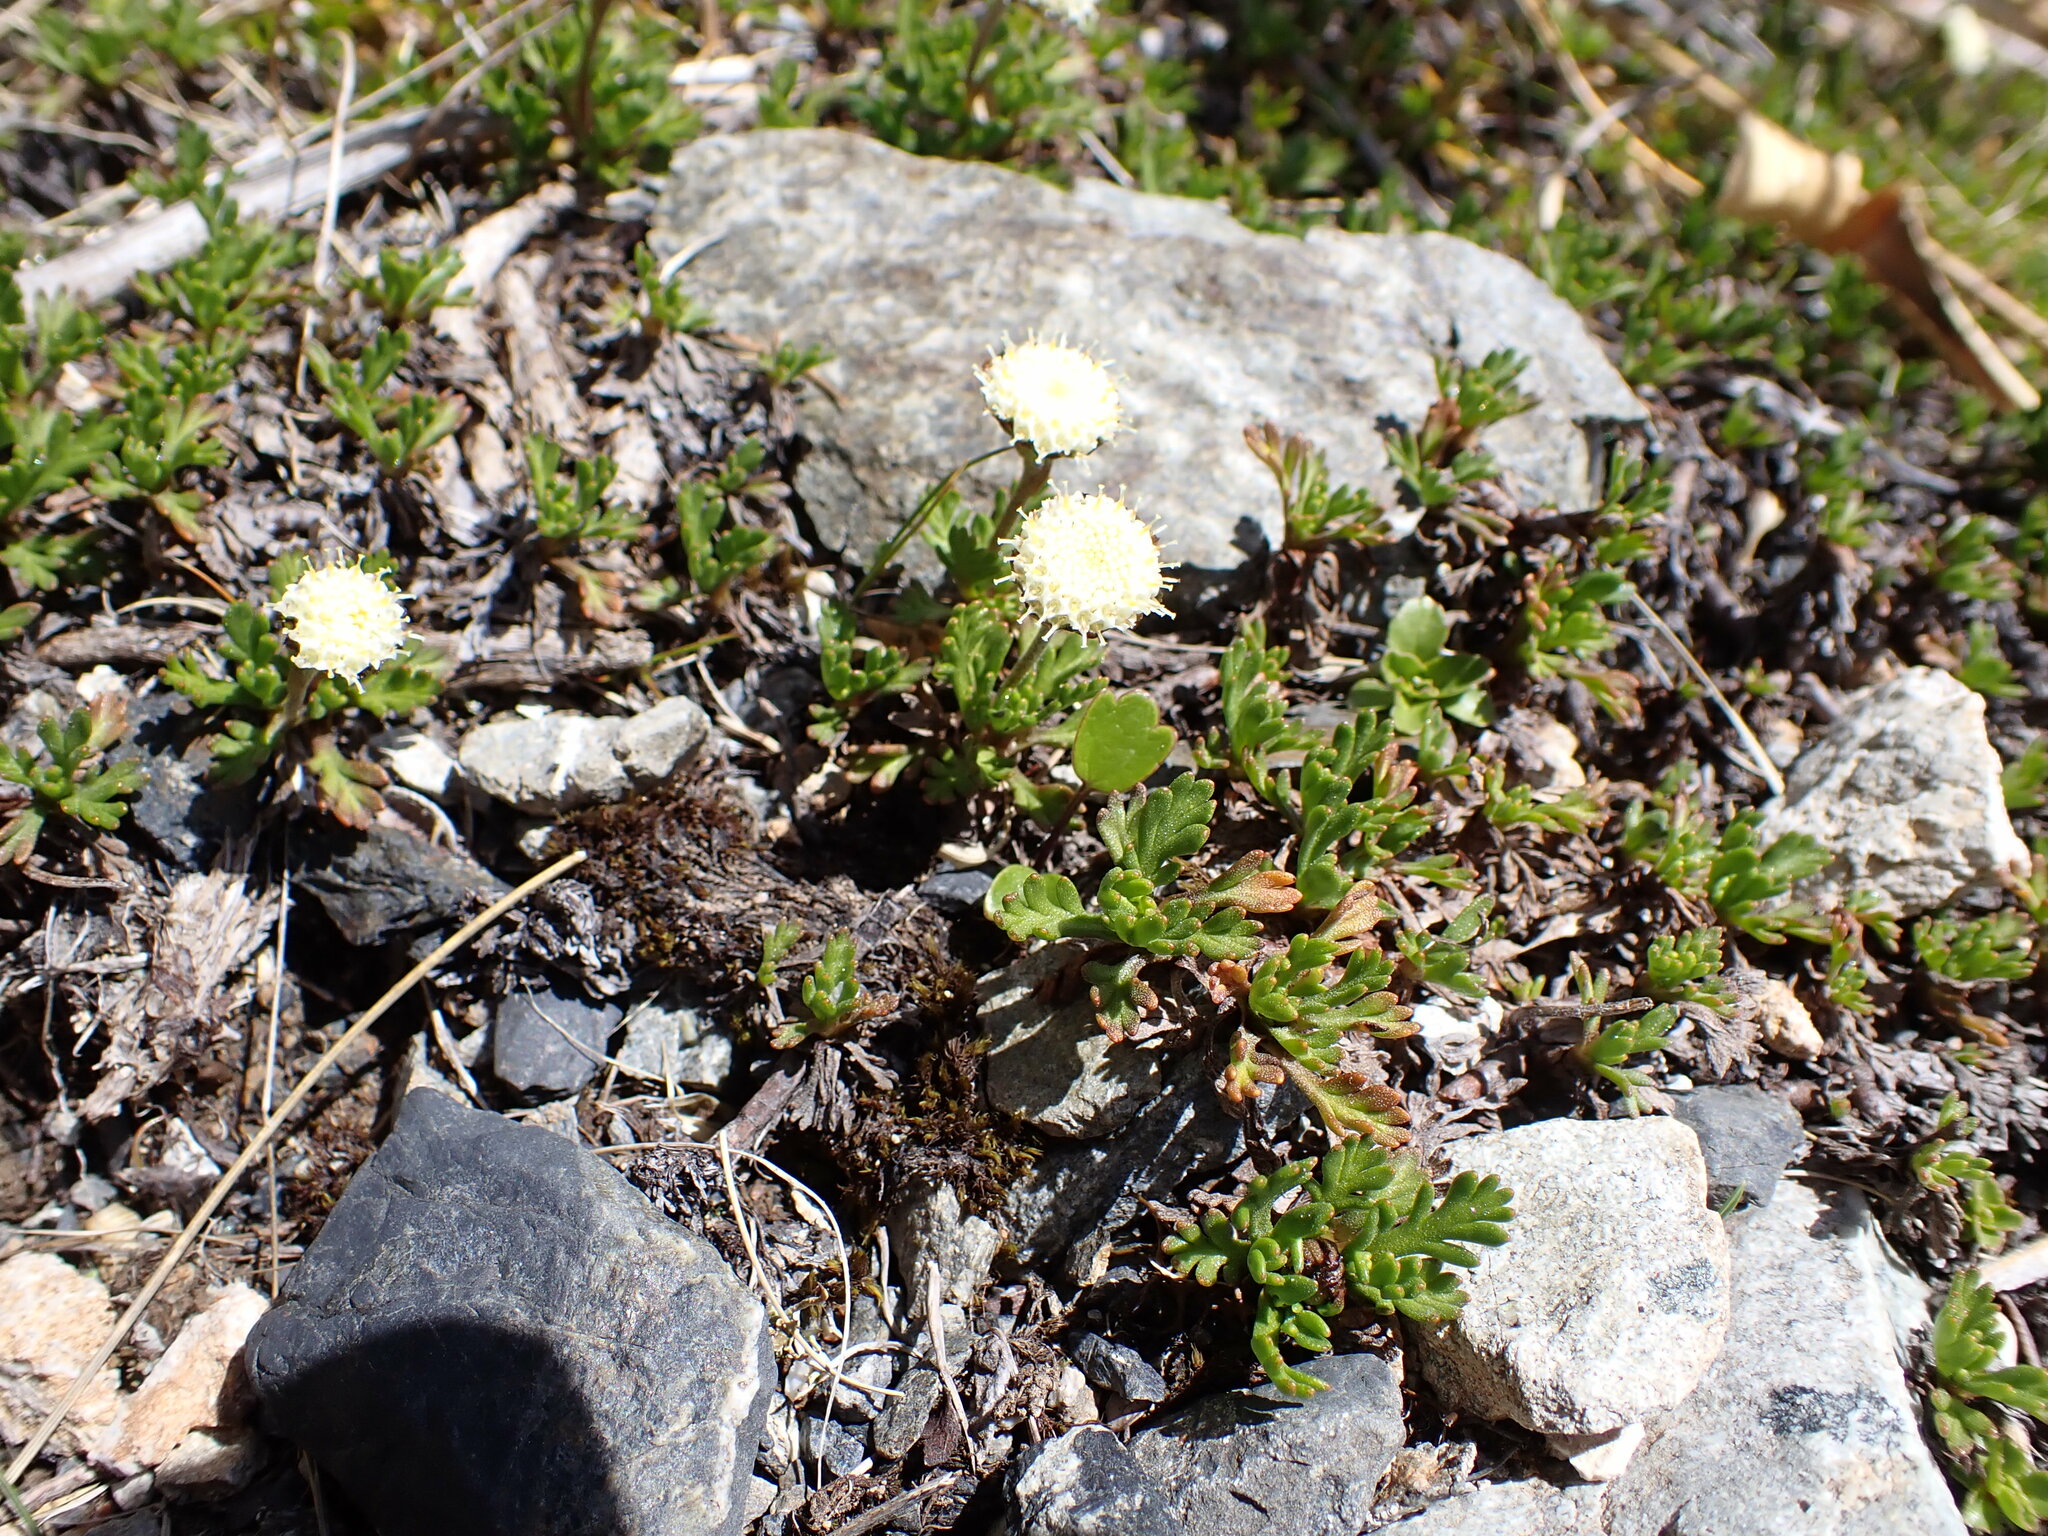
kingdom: Plantae
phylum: Tracheophyta
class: Magnoliopsida
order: Asterales
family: Asteraceae
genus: Leptinella
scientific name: Leptinella pyrethrifolia
